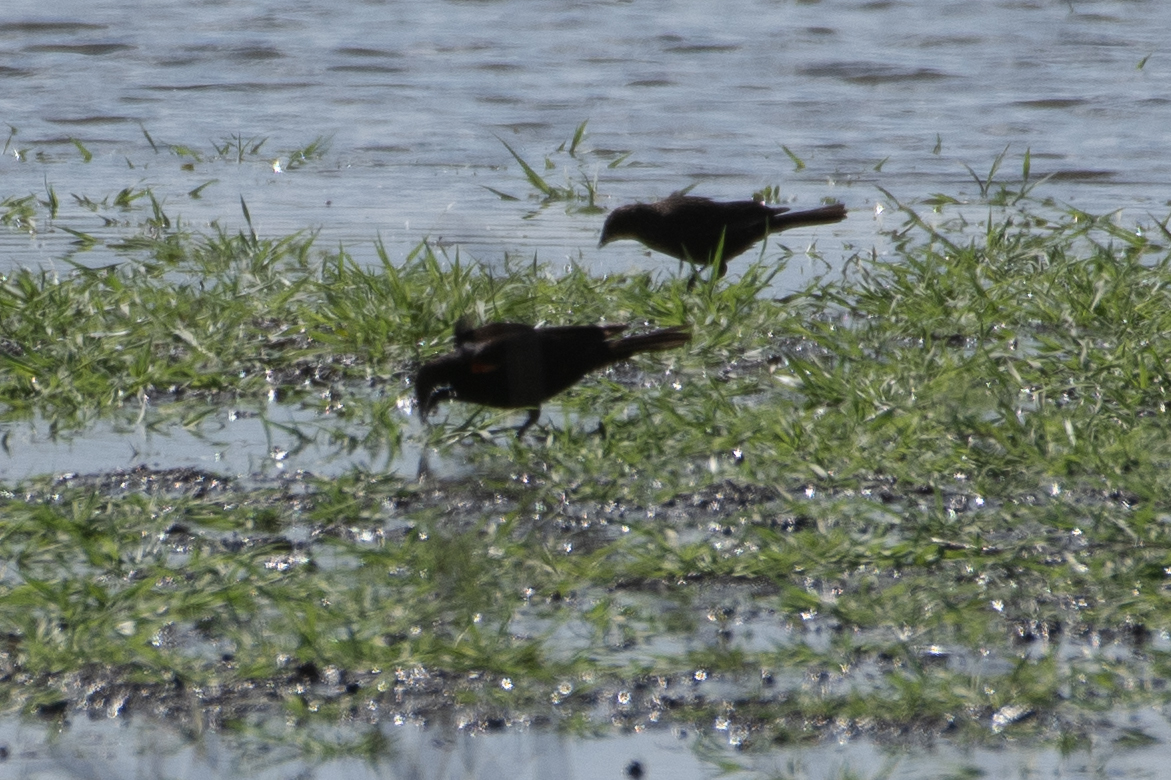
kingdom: Animalia
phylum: Chordata
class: Aves
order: Passeriformes
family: Icteridae
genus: Agelaius
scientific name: Agelaius phoeniceus
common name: Red-winged blackbird
